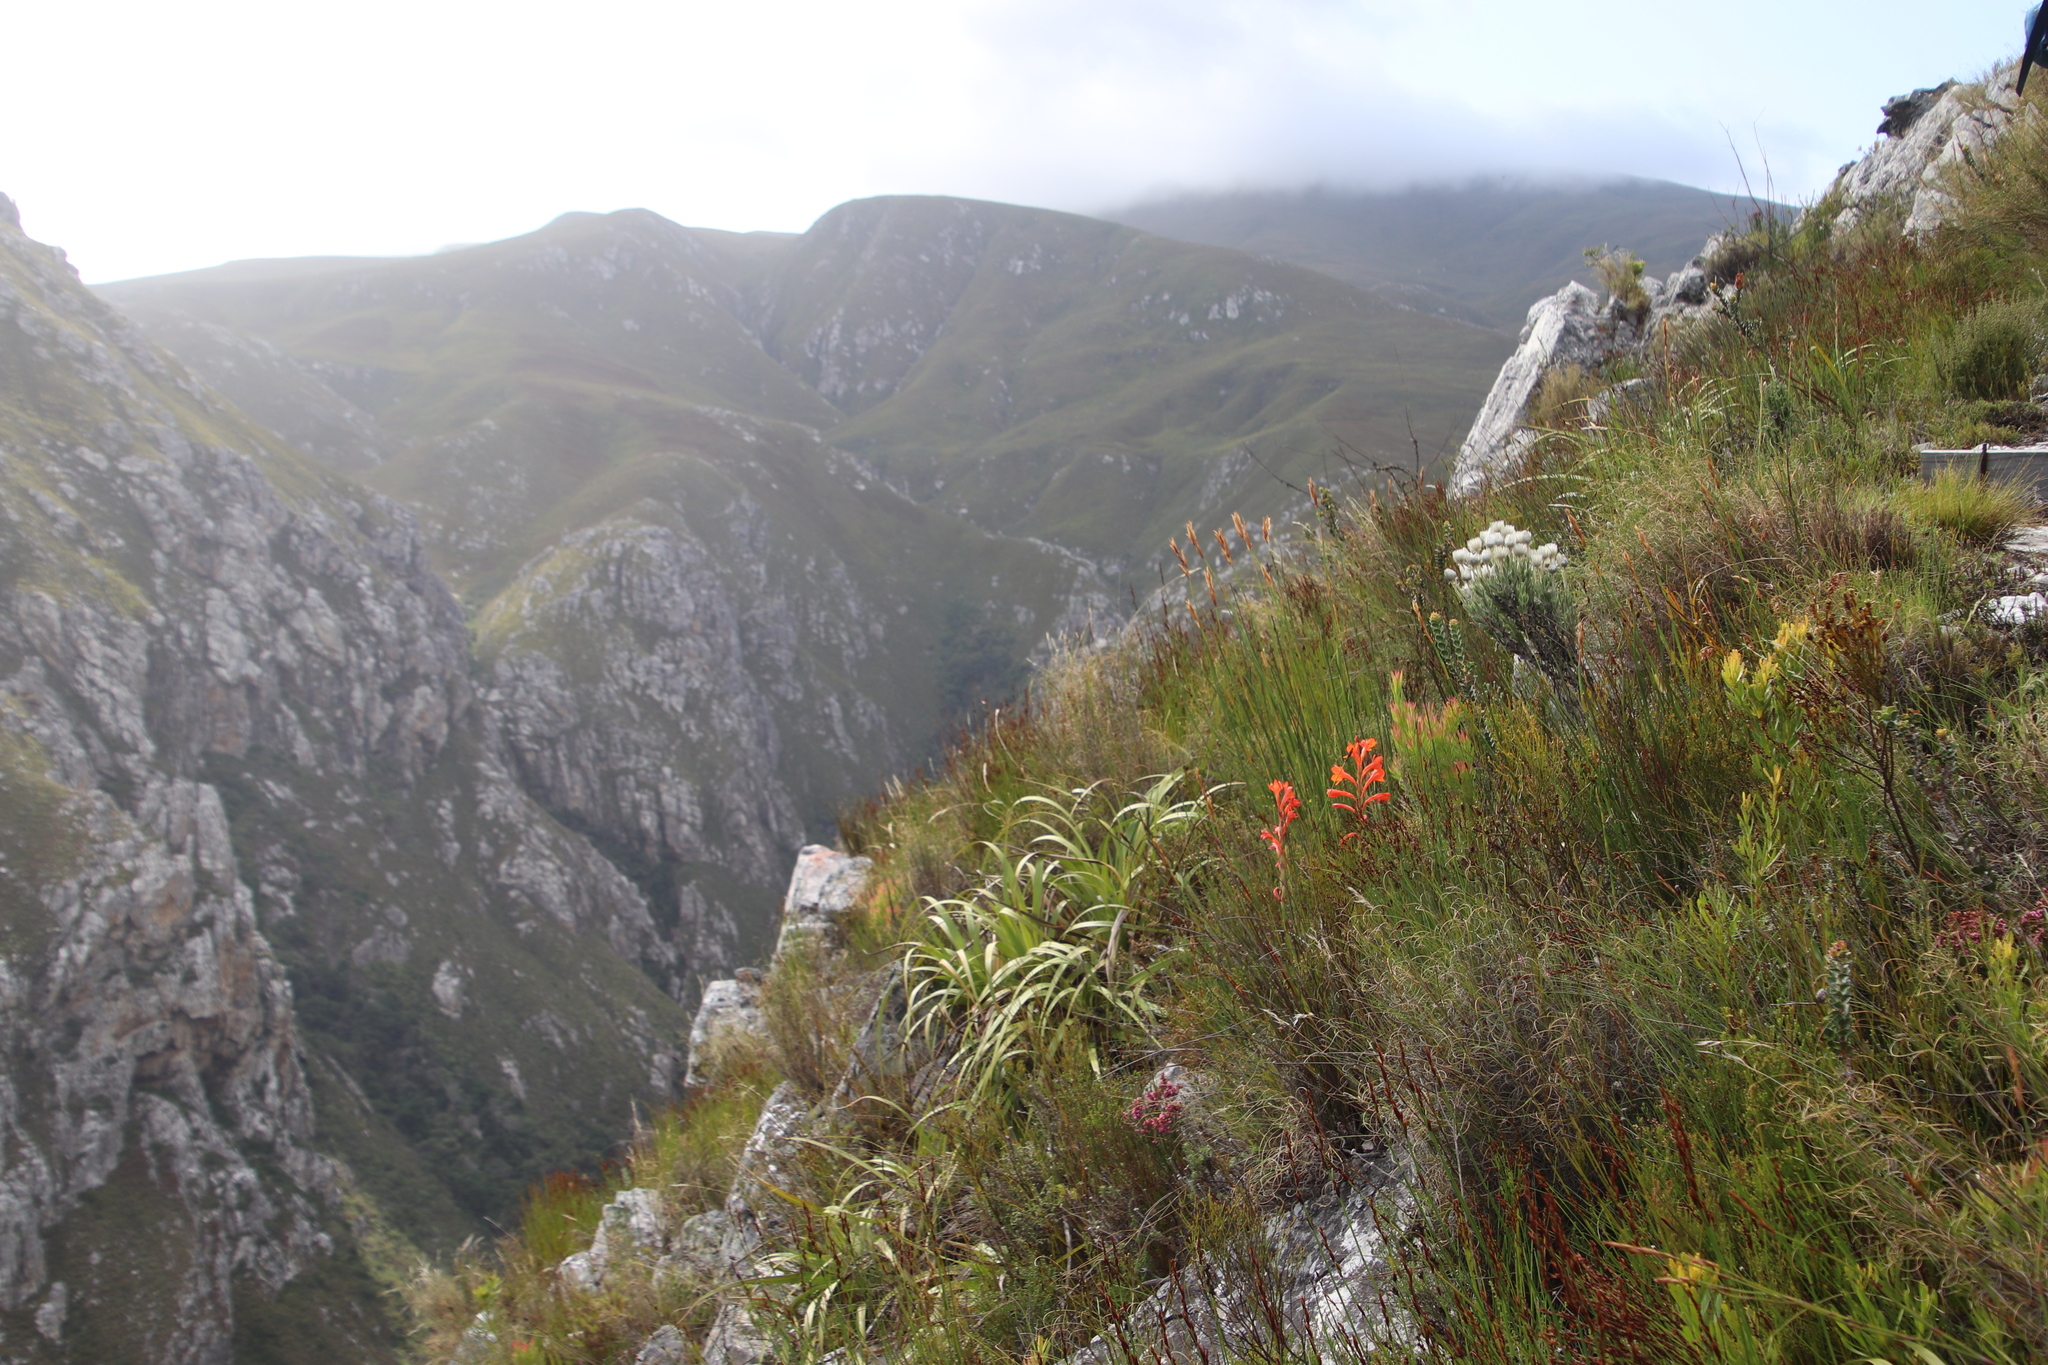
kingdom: Plantae
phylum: Tracheophyta
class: Liliopsida
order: Asparagales
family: Iridaceae
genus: Watsonia
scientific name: Watsonia schlechteri
